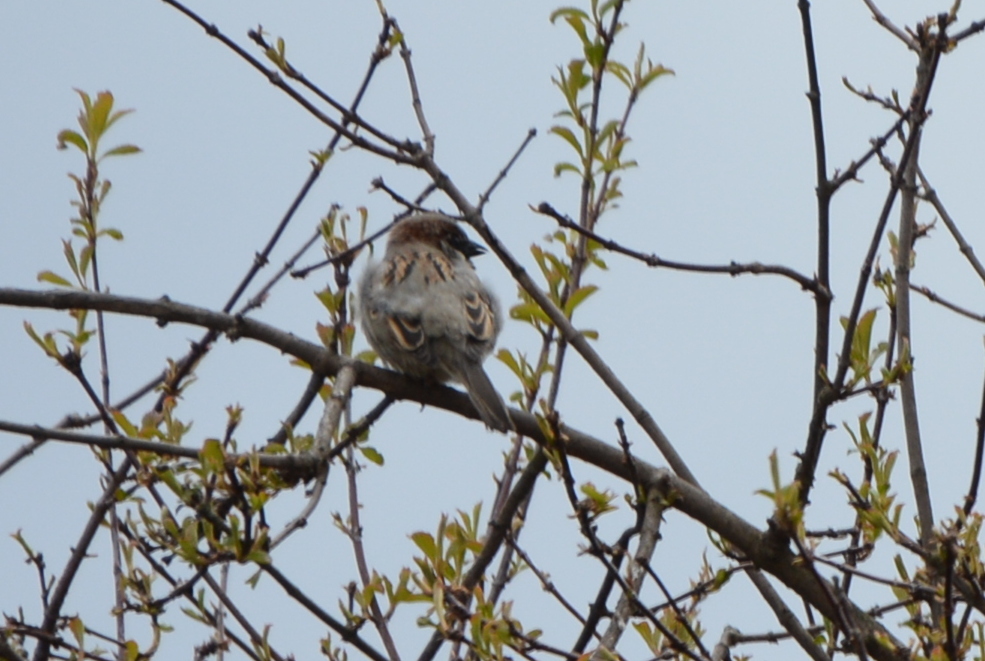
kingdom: Animalia
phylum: Chordata
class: Aves
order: Passeriformes
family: Passeridae
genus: Passer
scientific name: Passer domesticus
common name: House sparrow
